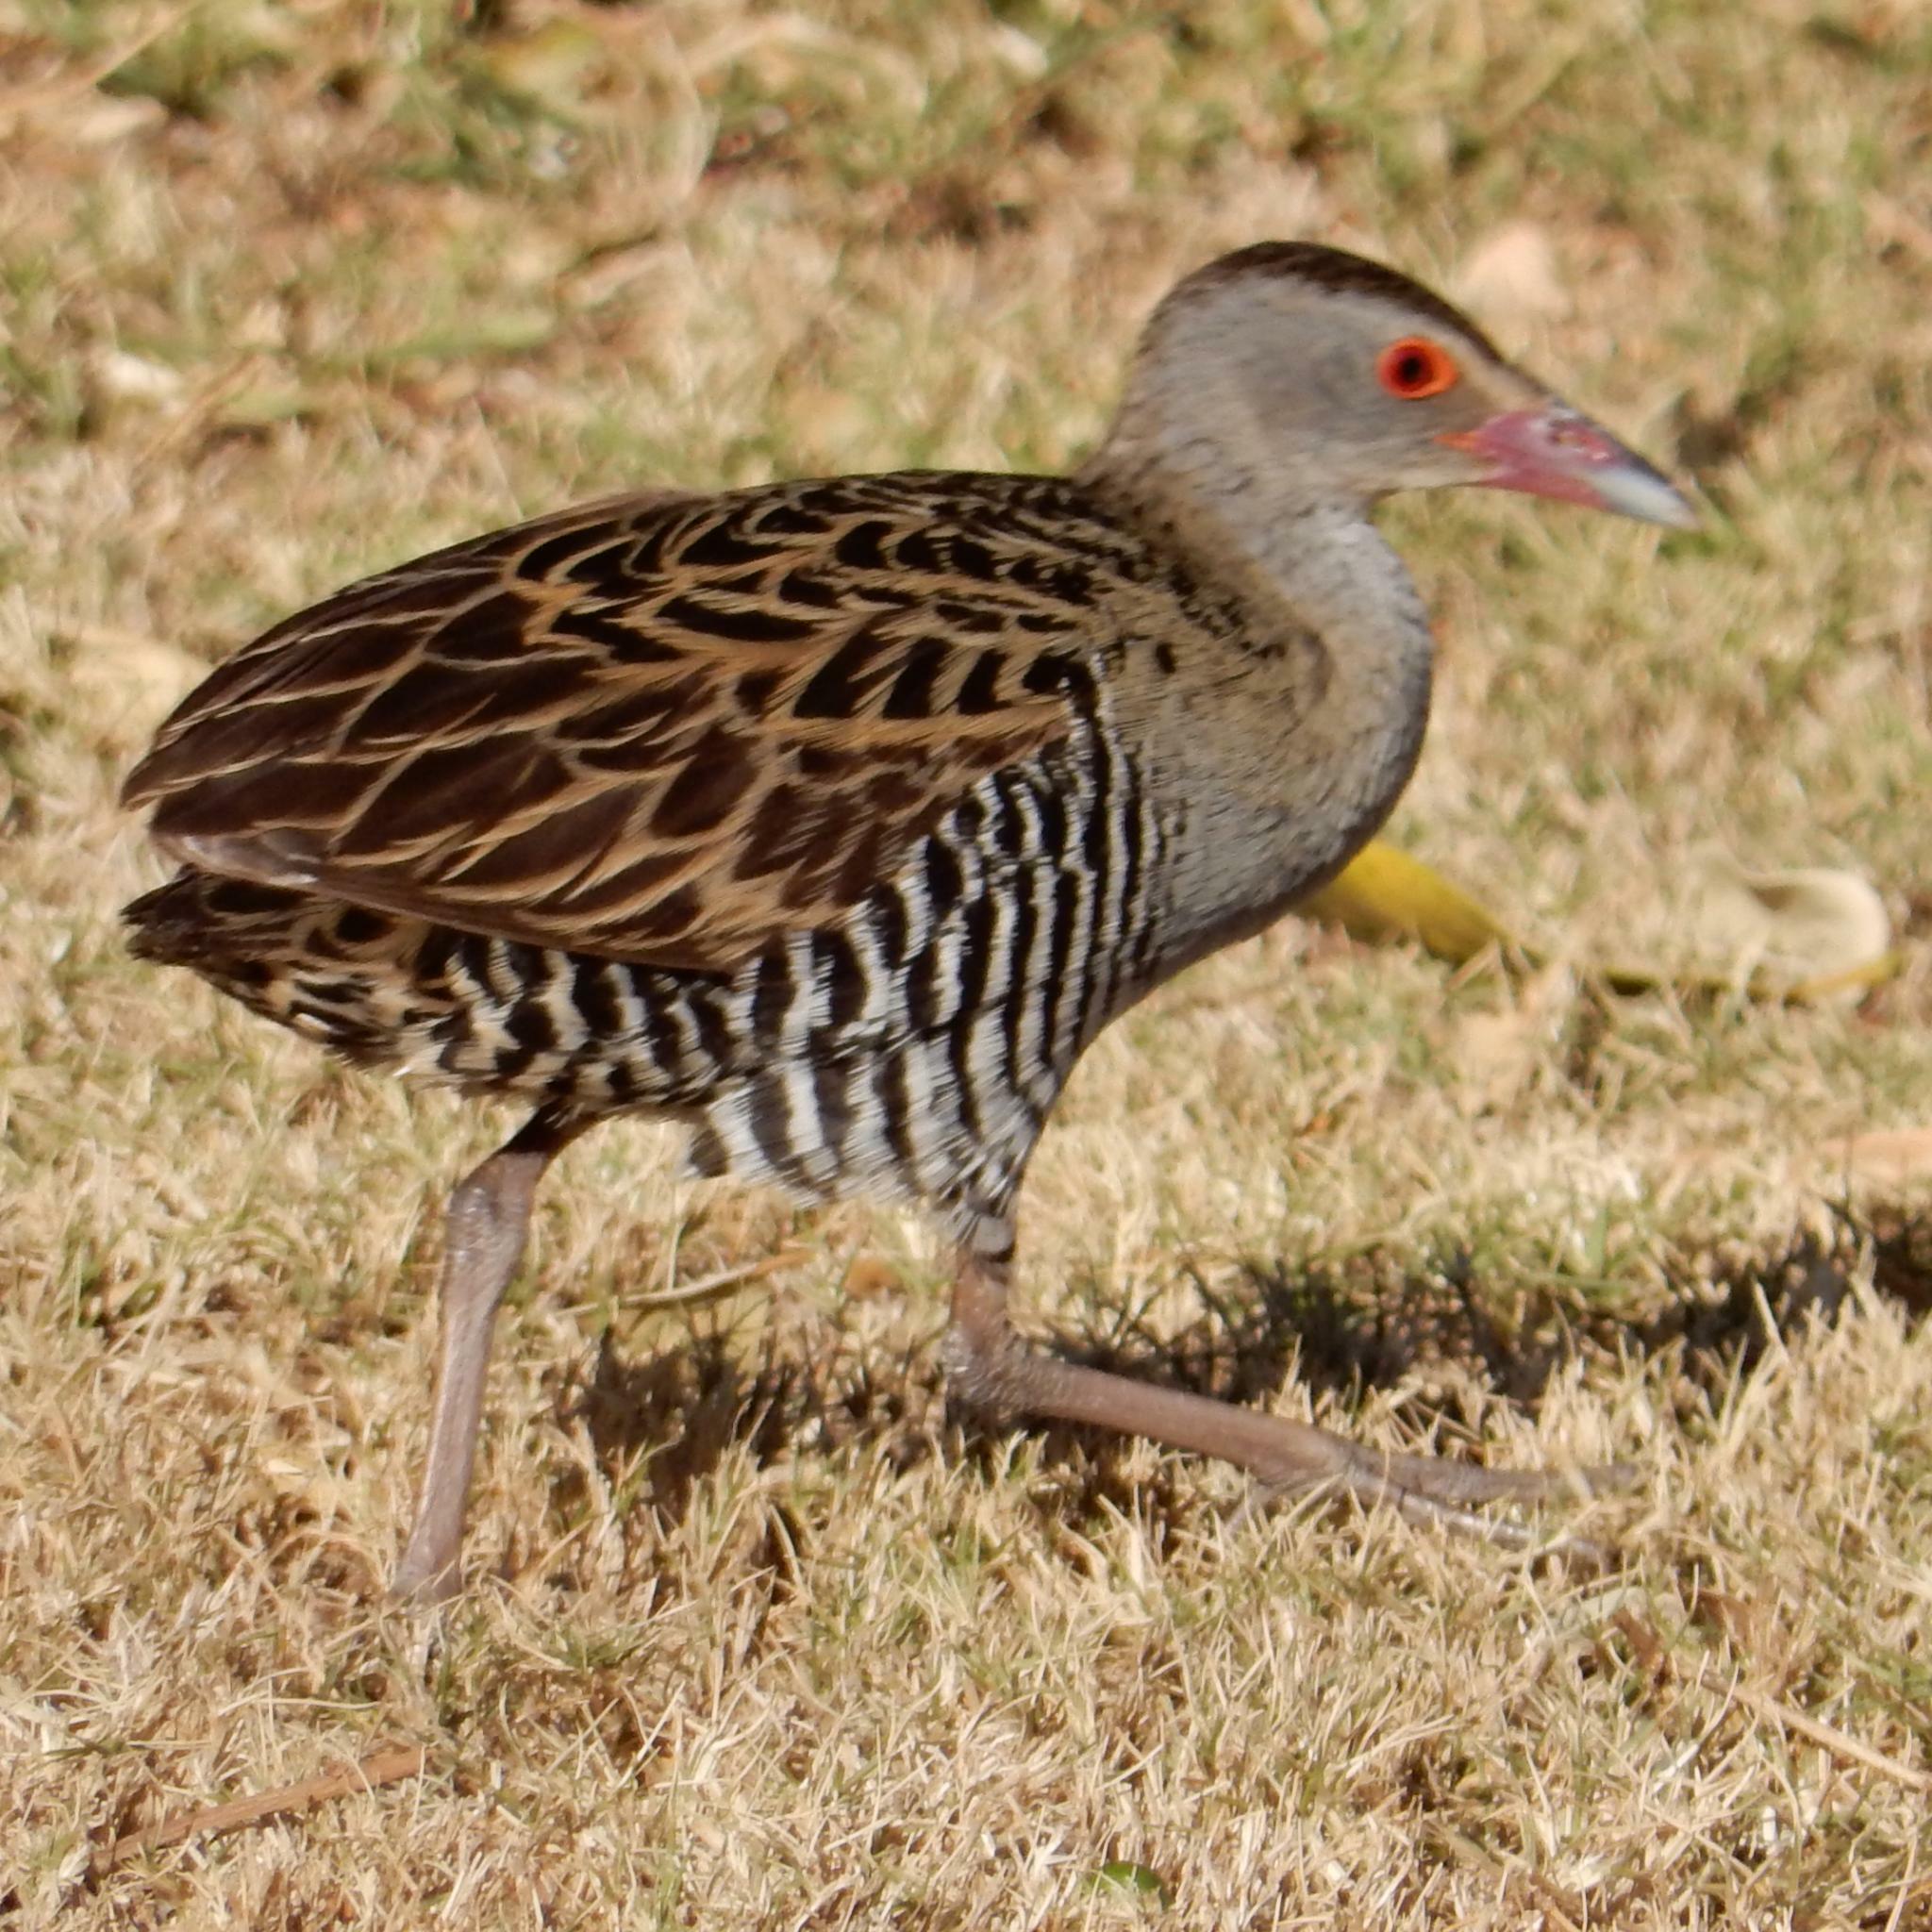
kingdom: Animalia
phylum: Chordata
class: Aves
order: Gruiformes
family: Rallidae
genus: Crex
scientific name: Crex egregia
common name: African crake
